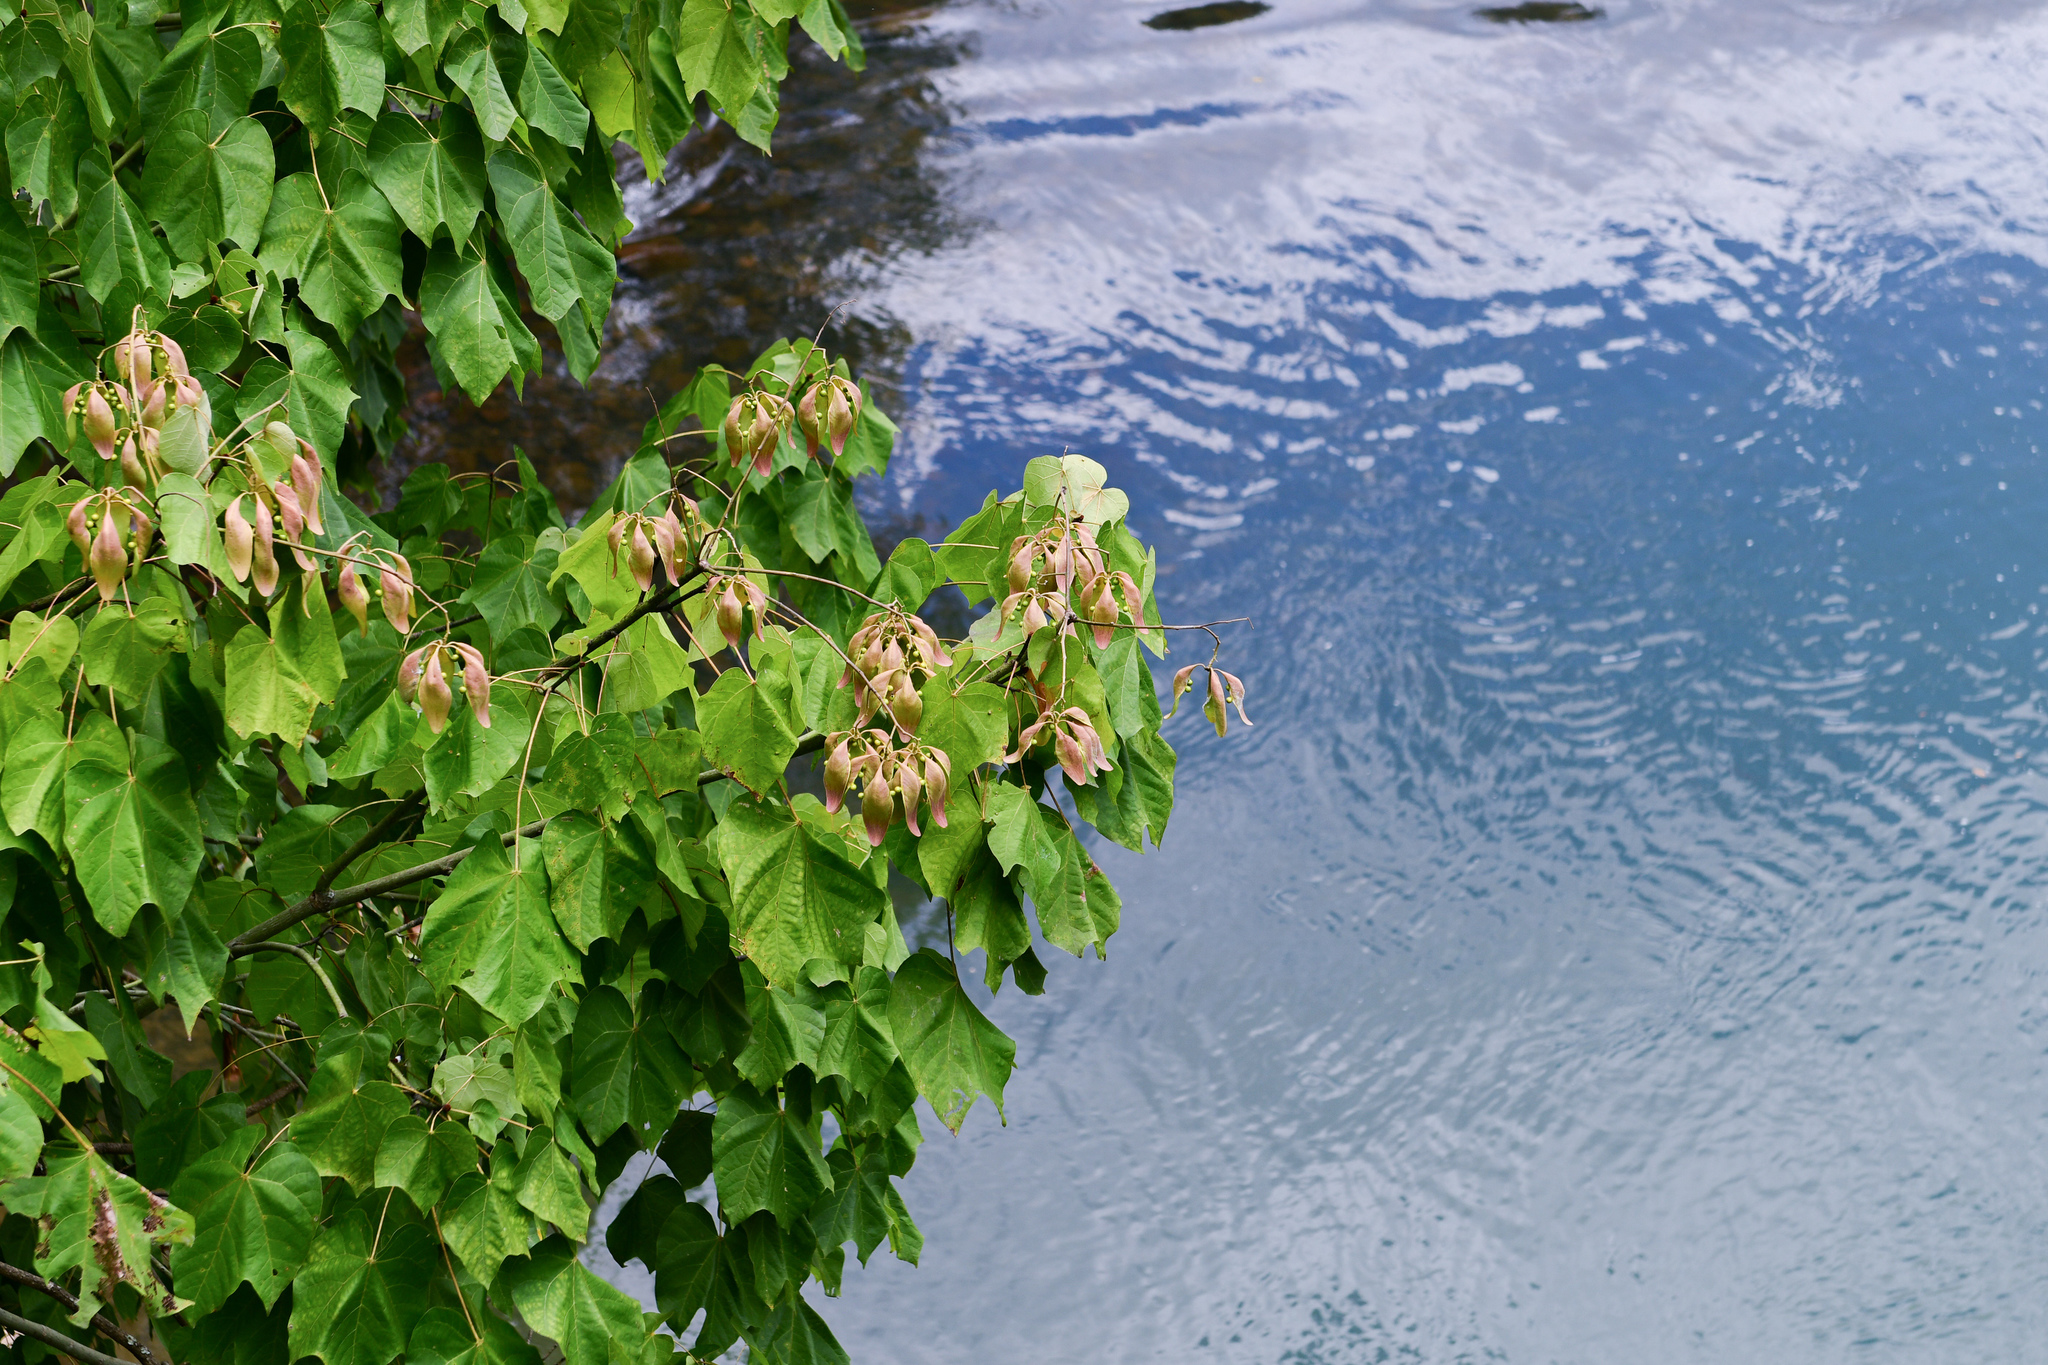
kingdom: Plantae
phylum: Tracheophyta
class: Magnoliopsida
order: Malvales
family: Malvaceae
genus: Firmiana
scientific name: Firmiana simplex
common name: Chinese parasoltree
